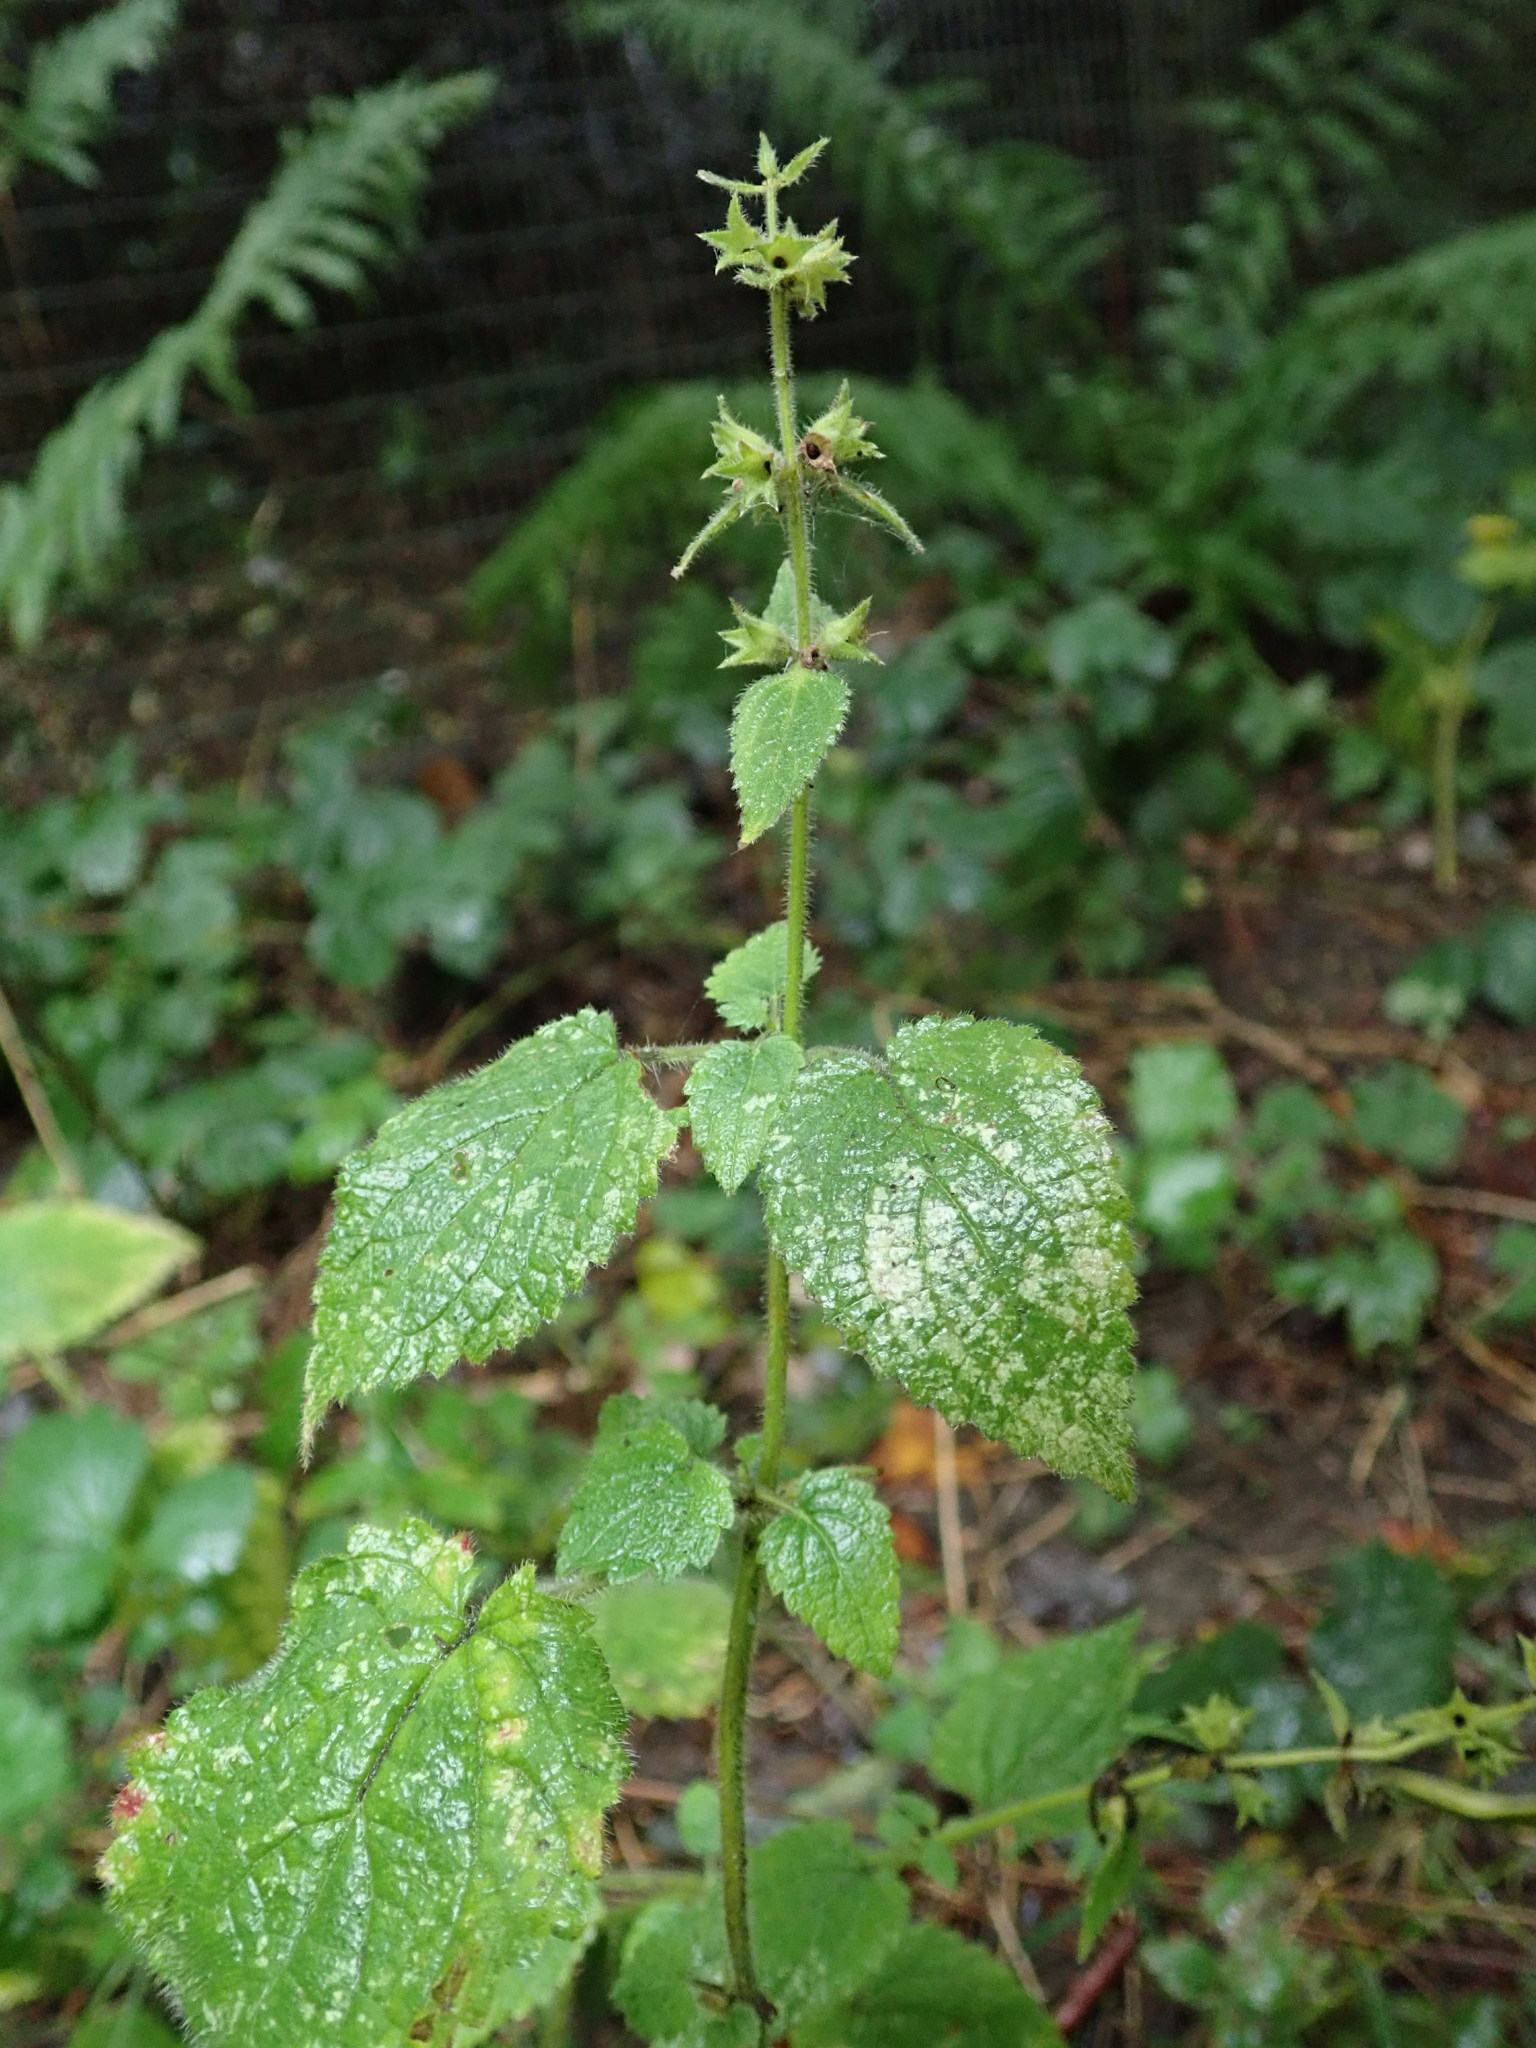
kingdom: Plantae
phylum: Tracheophyta
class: Magnoliopsida
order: Lamiales
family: Lamiaceae
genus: Stachys
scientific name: Stachys sylvatica
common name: Hedge woundwort
